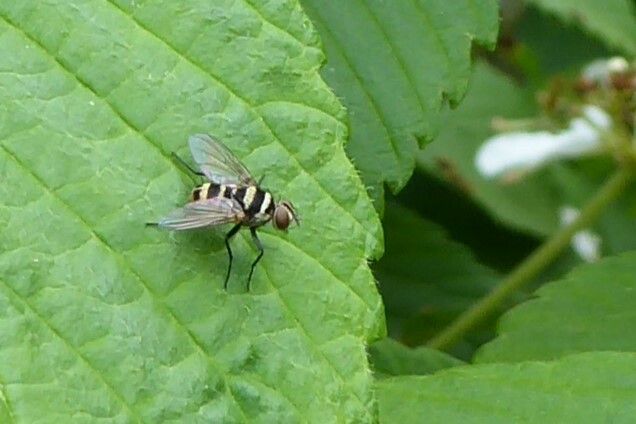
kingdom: Animalia
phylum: Arthropoda
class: Insecta
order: Diptera
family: Tachinidae
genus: Trigonospila
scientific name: Trigonospila brevifacies
